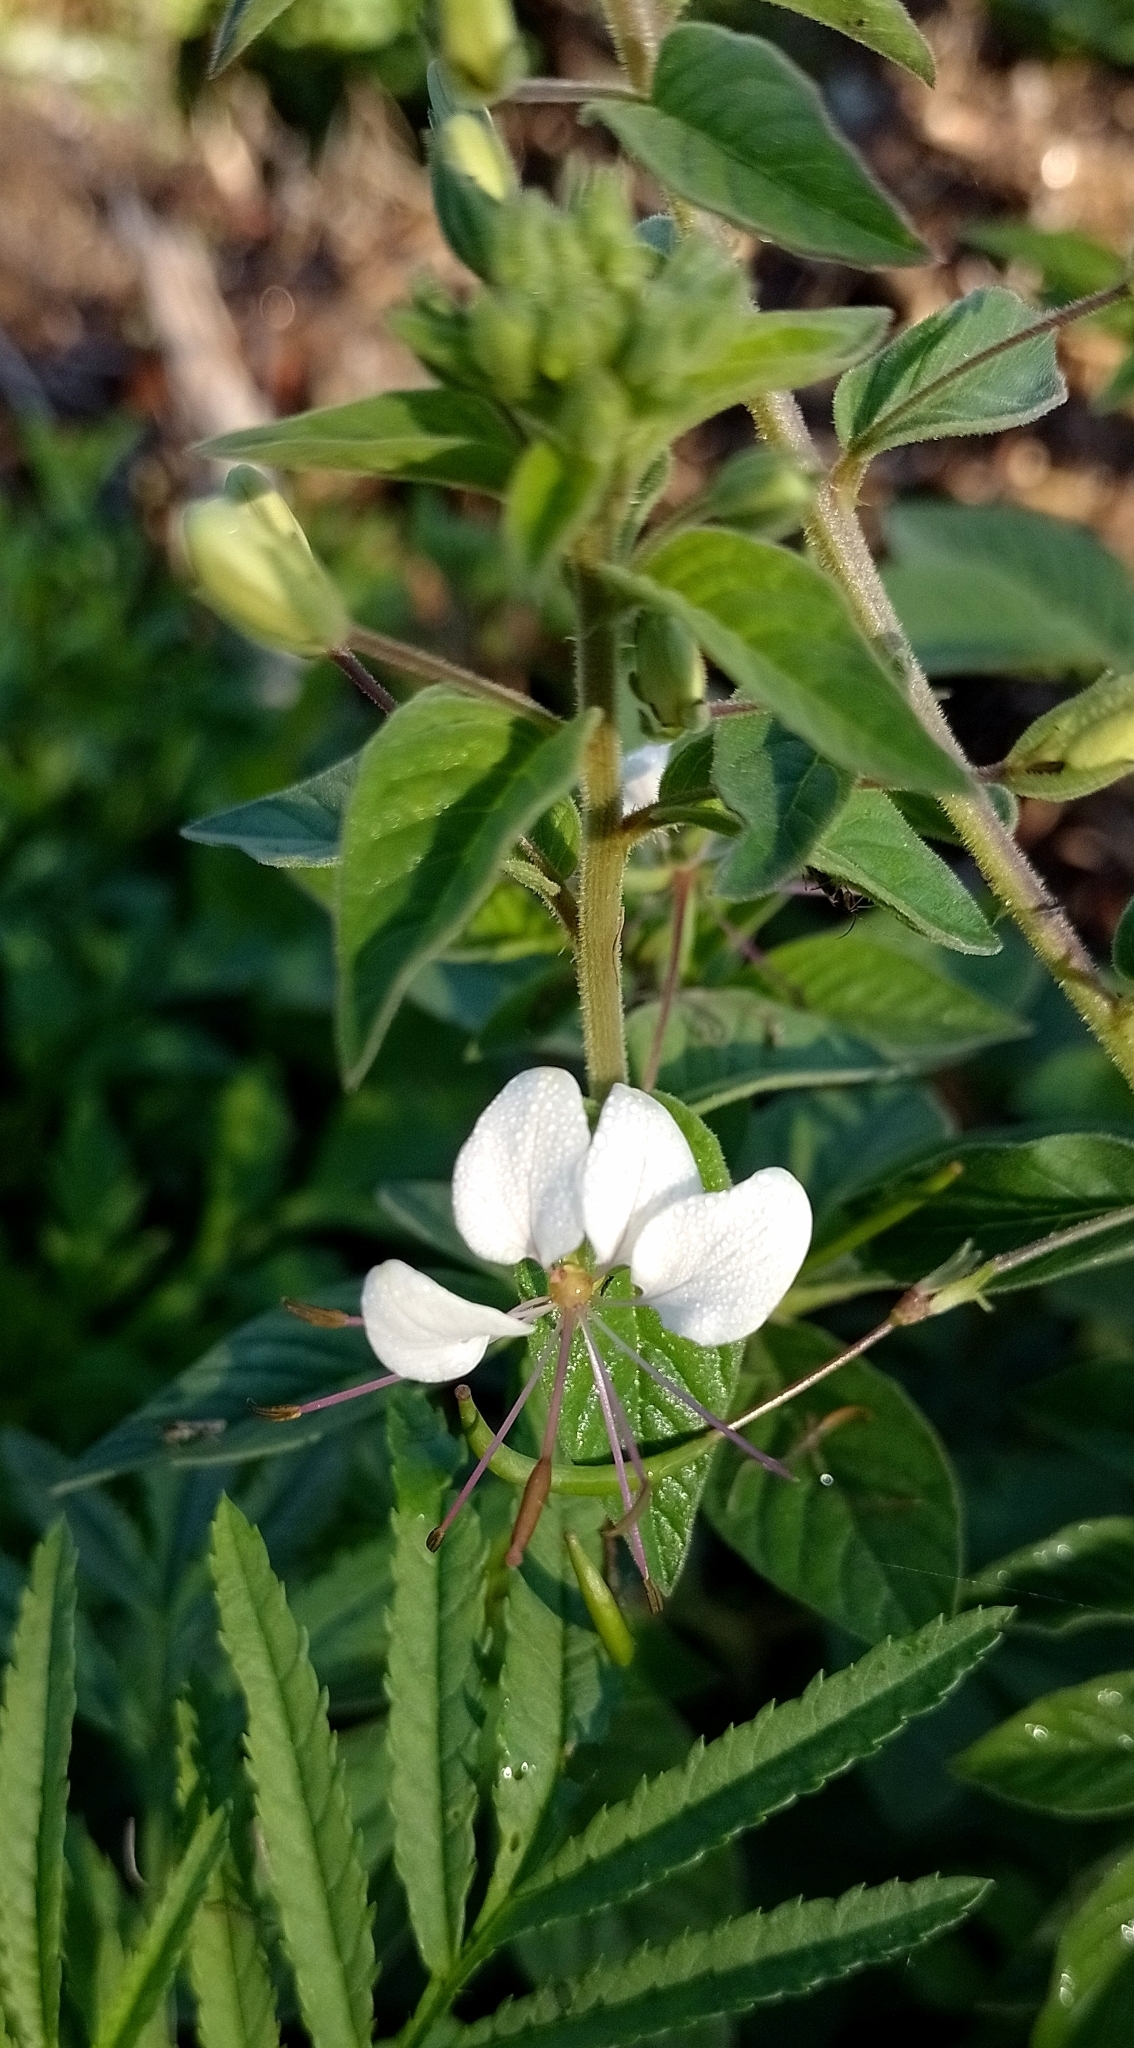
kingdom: Plantae
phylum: Tracheophyta
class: Magnoliopsida
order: Brassicales
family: Cleomaceae
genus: Tarenaya
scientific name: Tarenaya cordobensis
